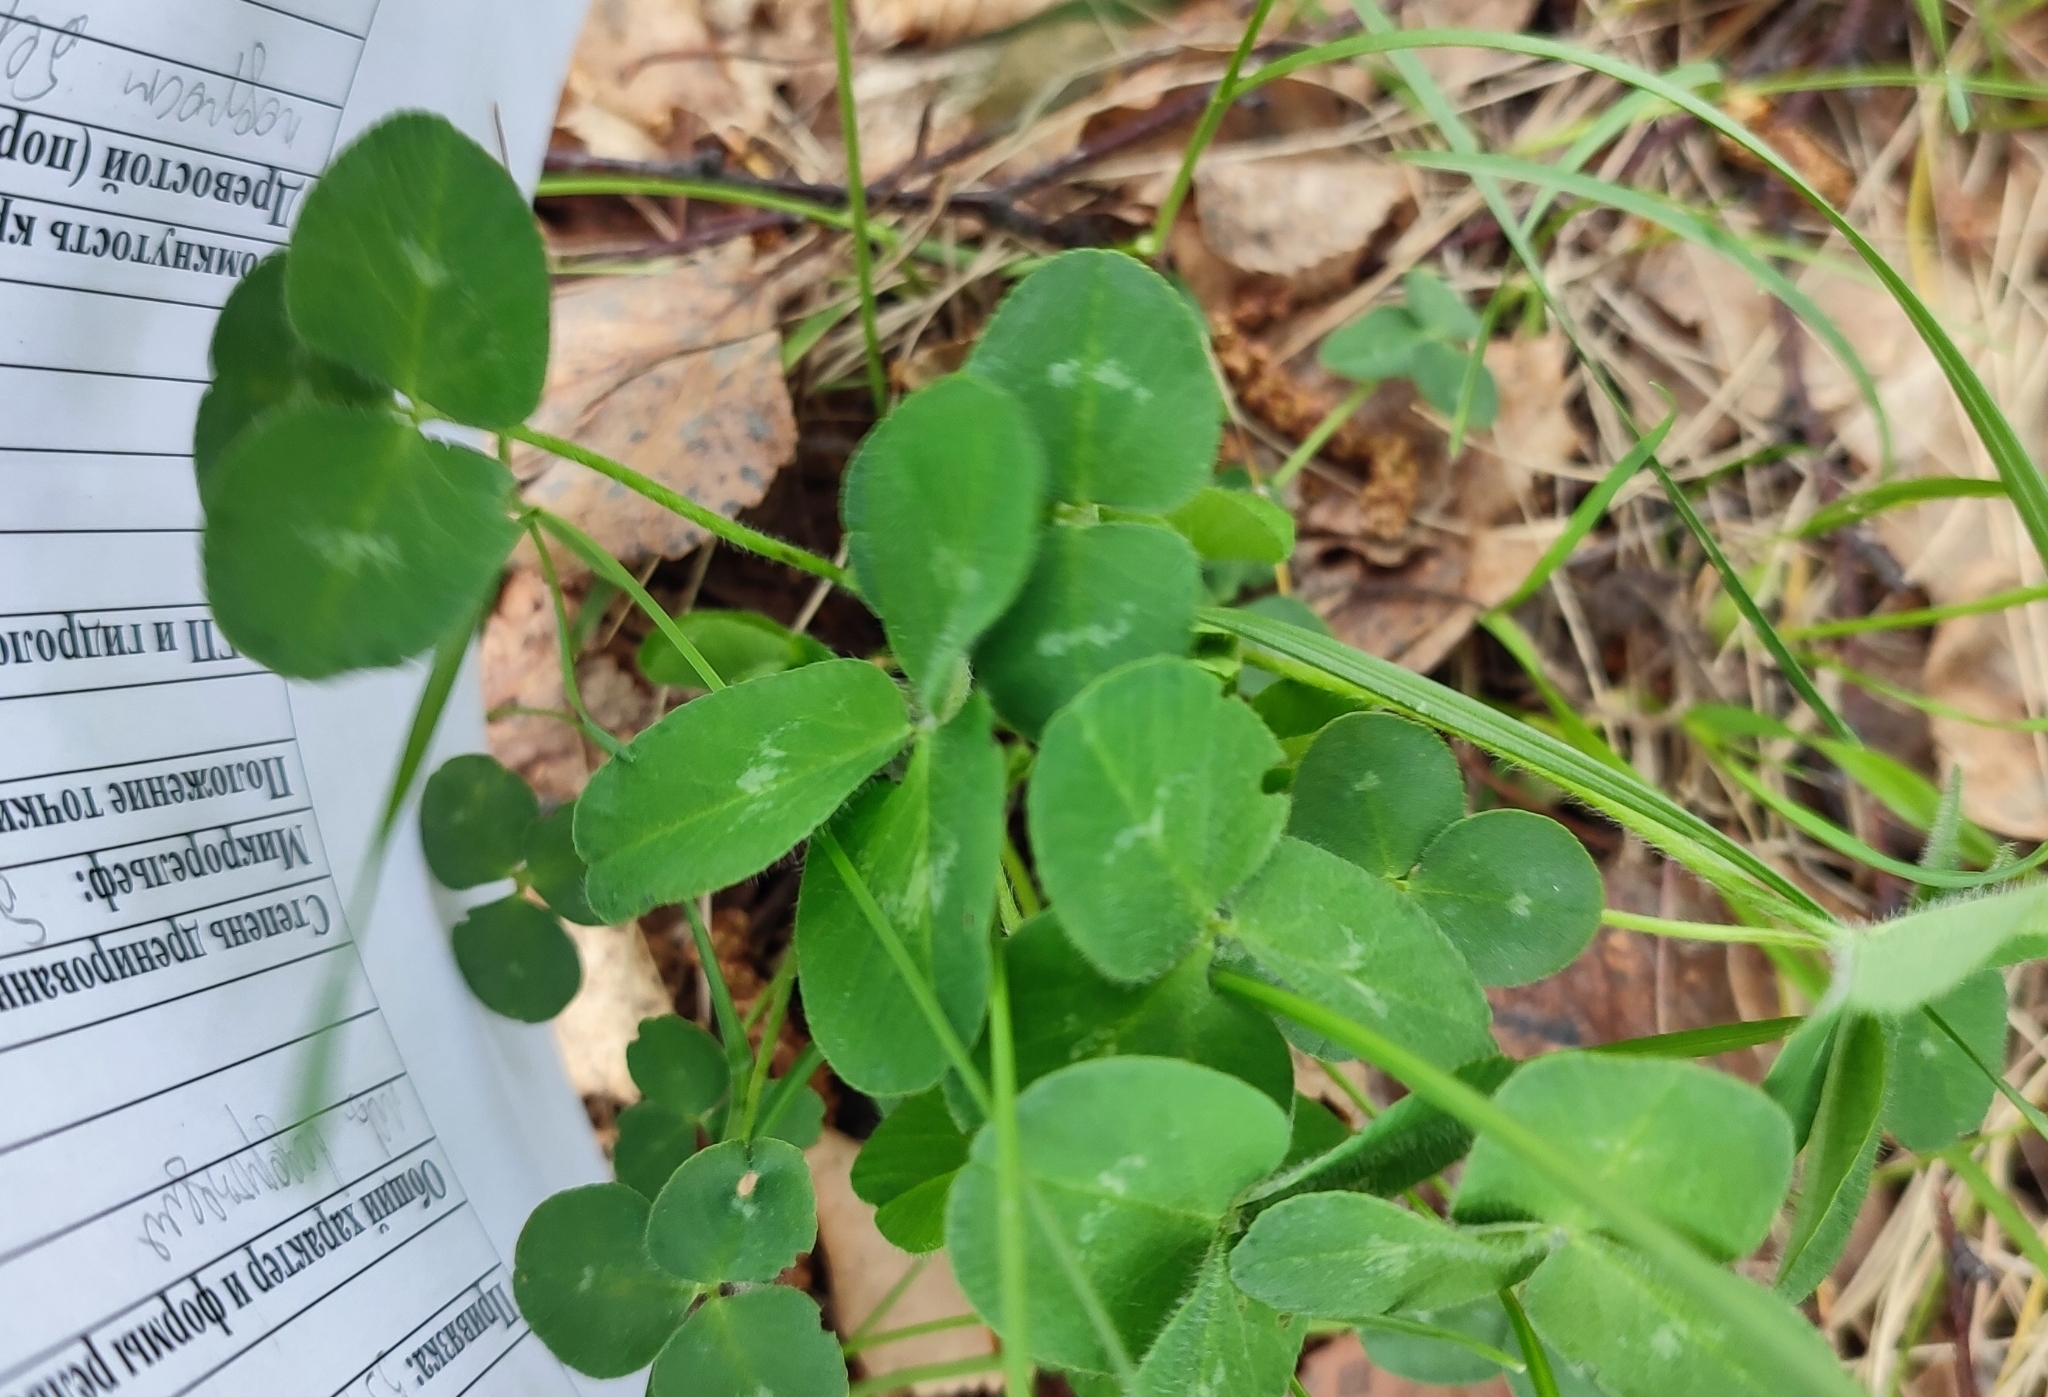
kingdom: Plantae
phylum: Tracheophyta
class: Magnoliopsida
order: Fabales
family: Fabaceae
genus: Trifolium
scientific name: Trifolium pratense
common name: Red clover
